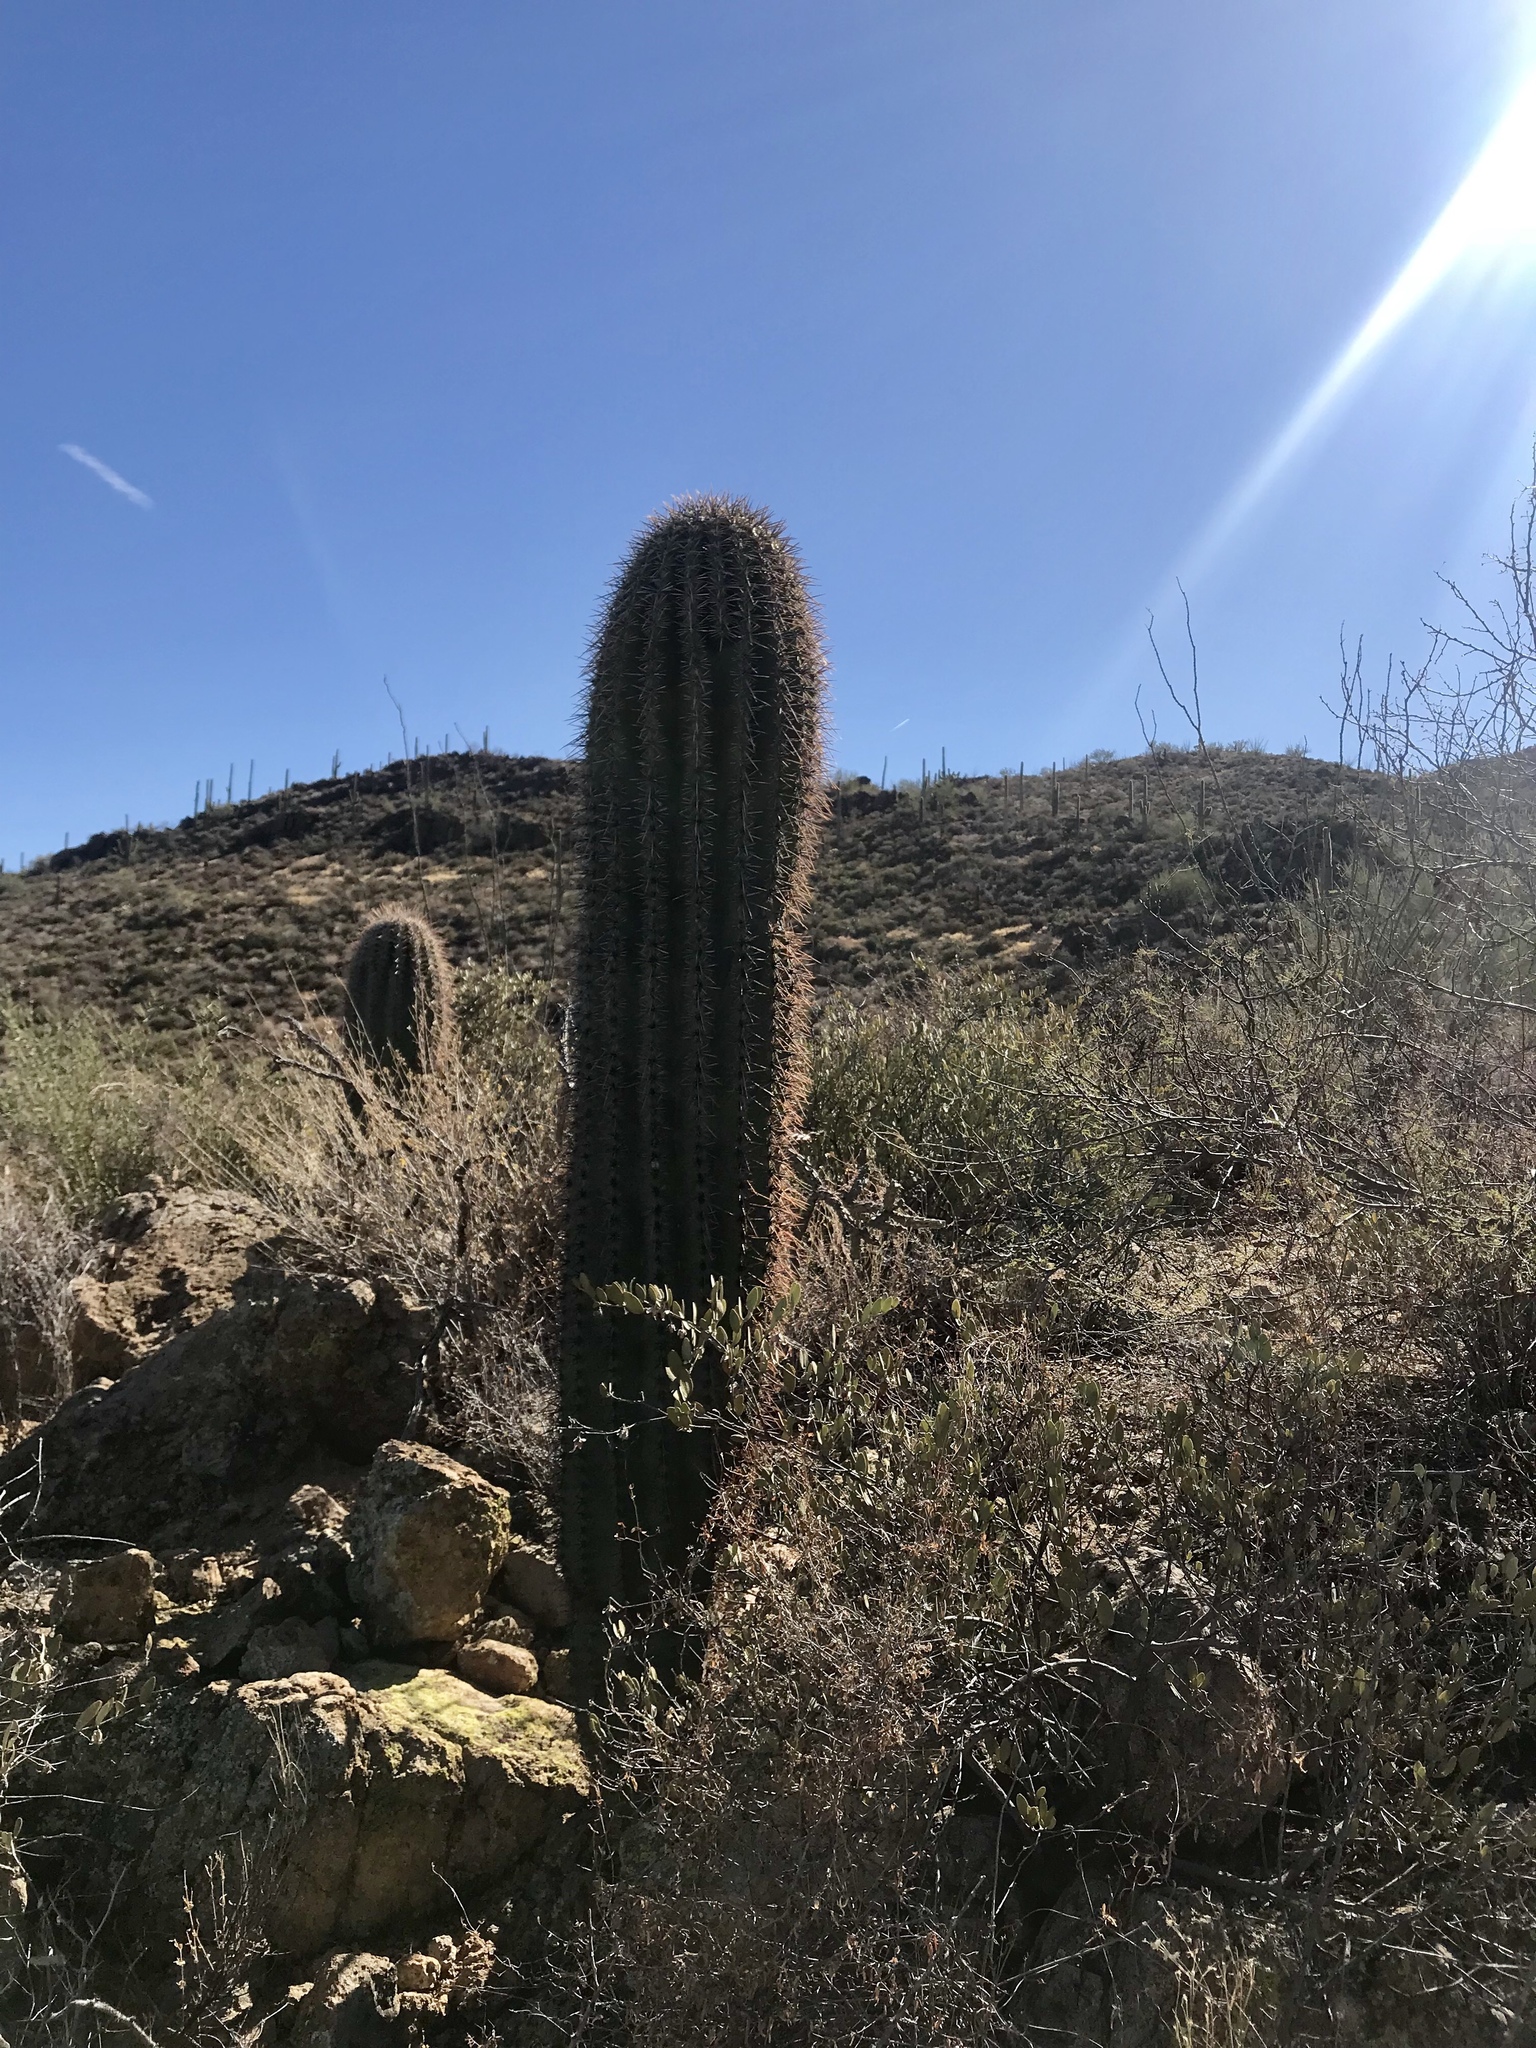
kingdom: Plantae
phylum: Tracheophyta
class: Magnoliopsida
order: Caryophyllales
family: Cactaceae
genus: Carnegiea
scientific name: Carnegiea gigantea
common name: Saguaro
